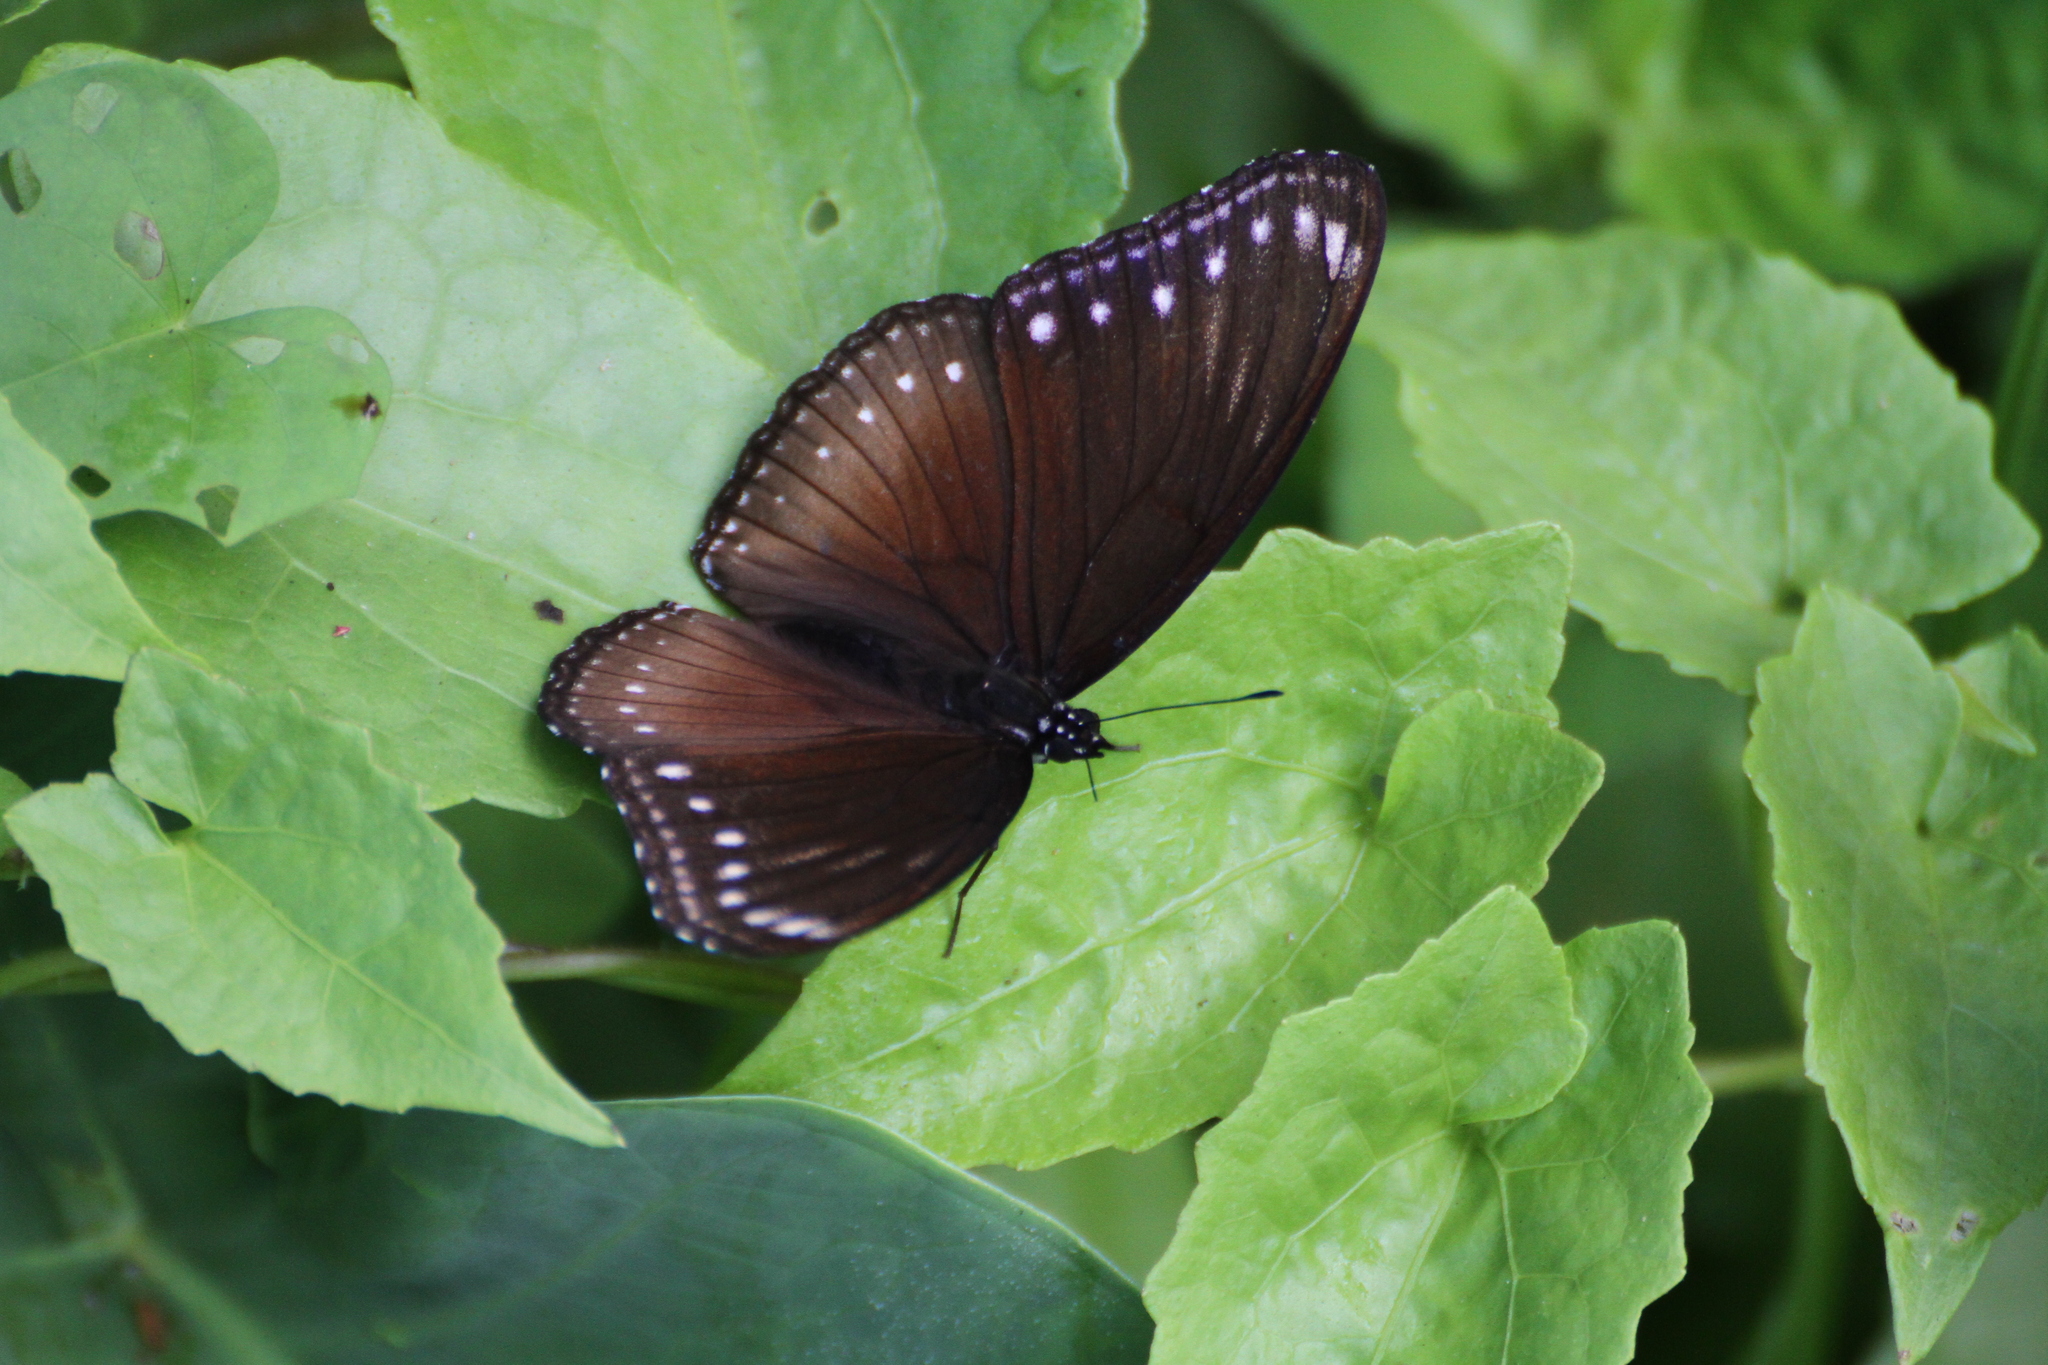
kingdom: Animalia
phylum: Arthropoda
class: Insecta
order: Lepidoptera
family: Nymphalidae
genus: Hypolimnas
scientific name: Hypolimnas anomala
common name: Malayan eggfly
